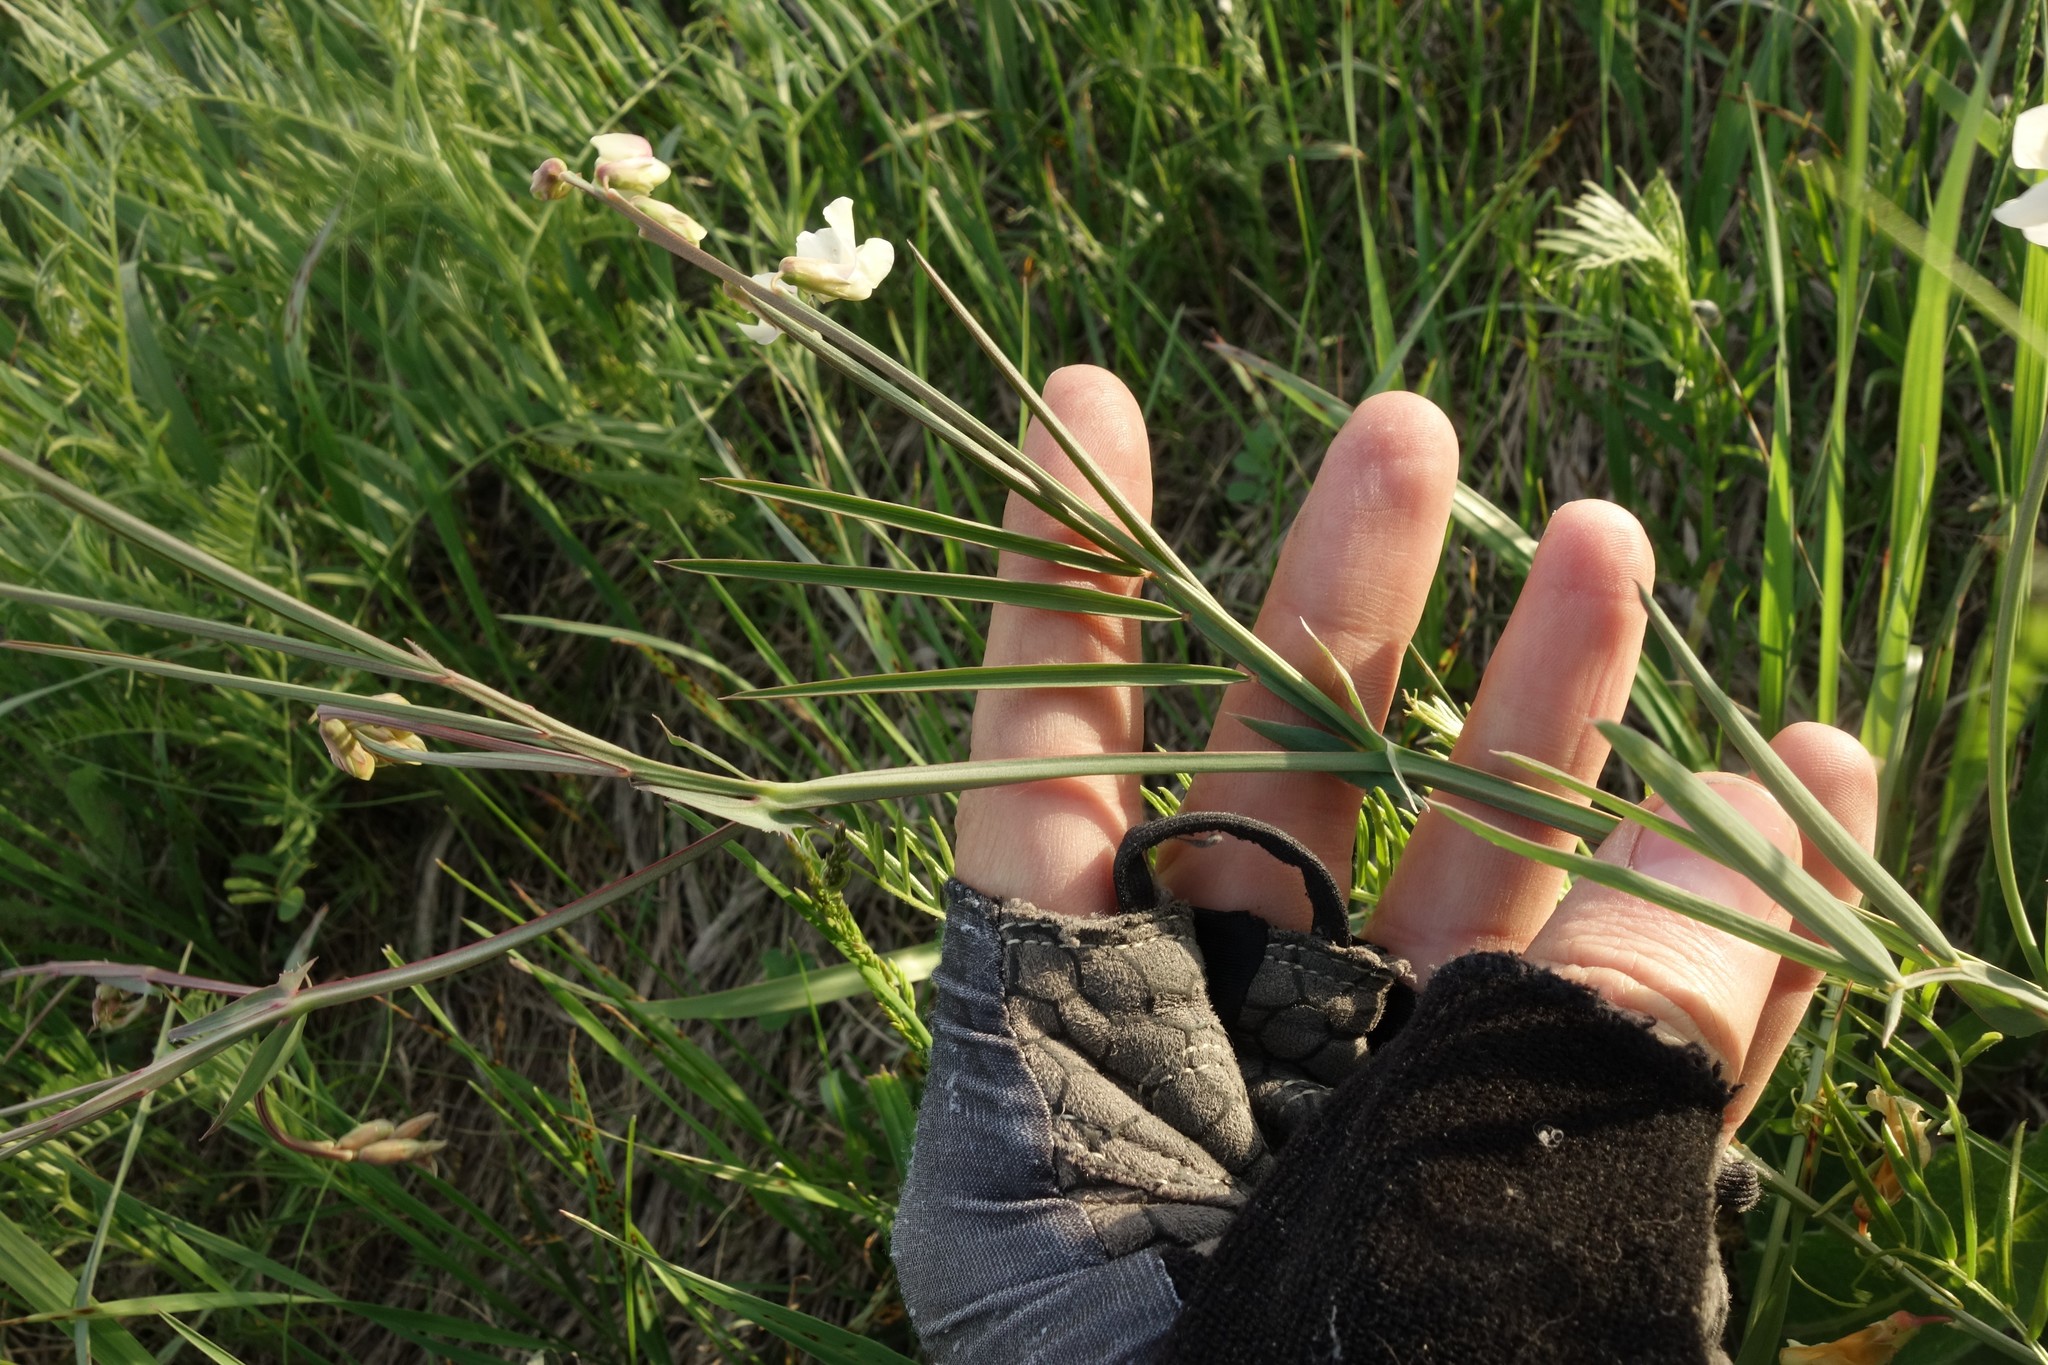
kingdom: Plantae
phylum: Tracheophyta
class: Magnoliopsida
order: Fabales
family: Fabaceae
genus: Lathyrus
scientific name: Lathyrus pannonicus
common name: Pea
